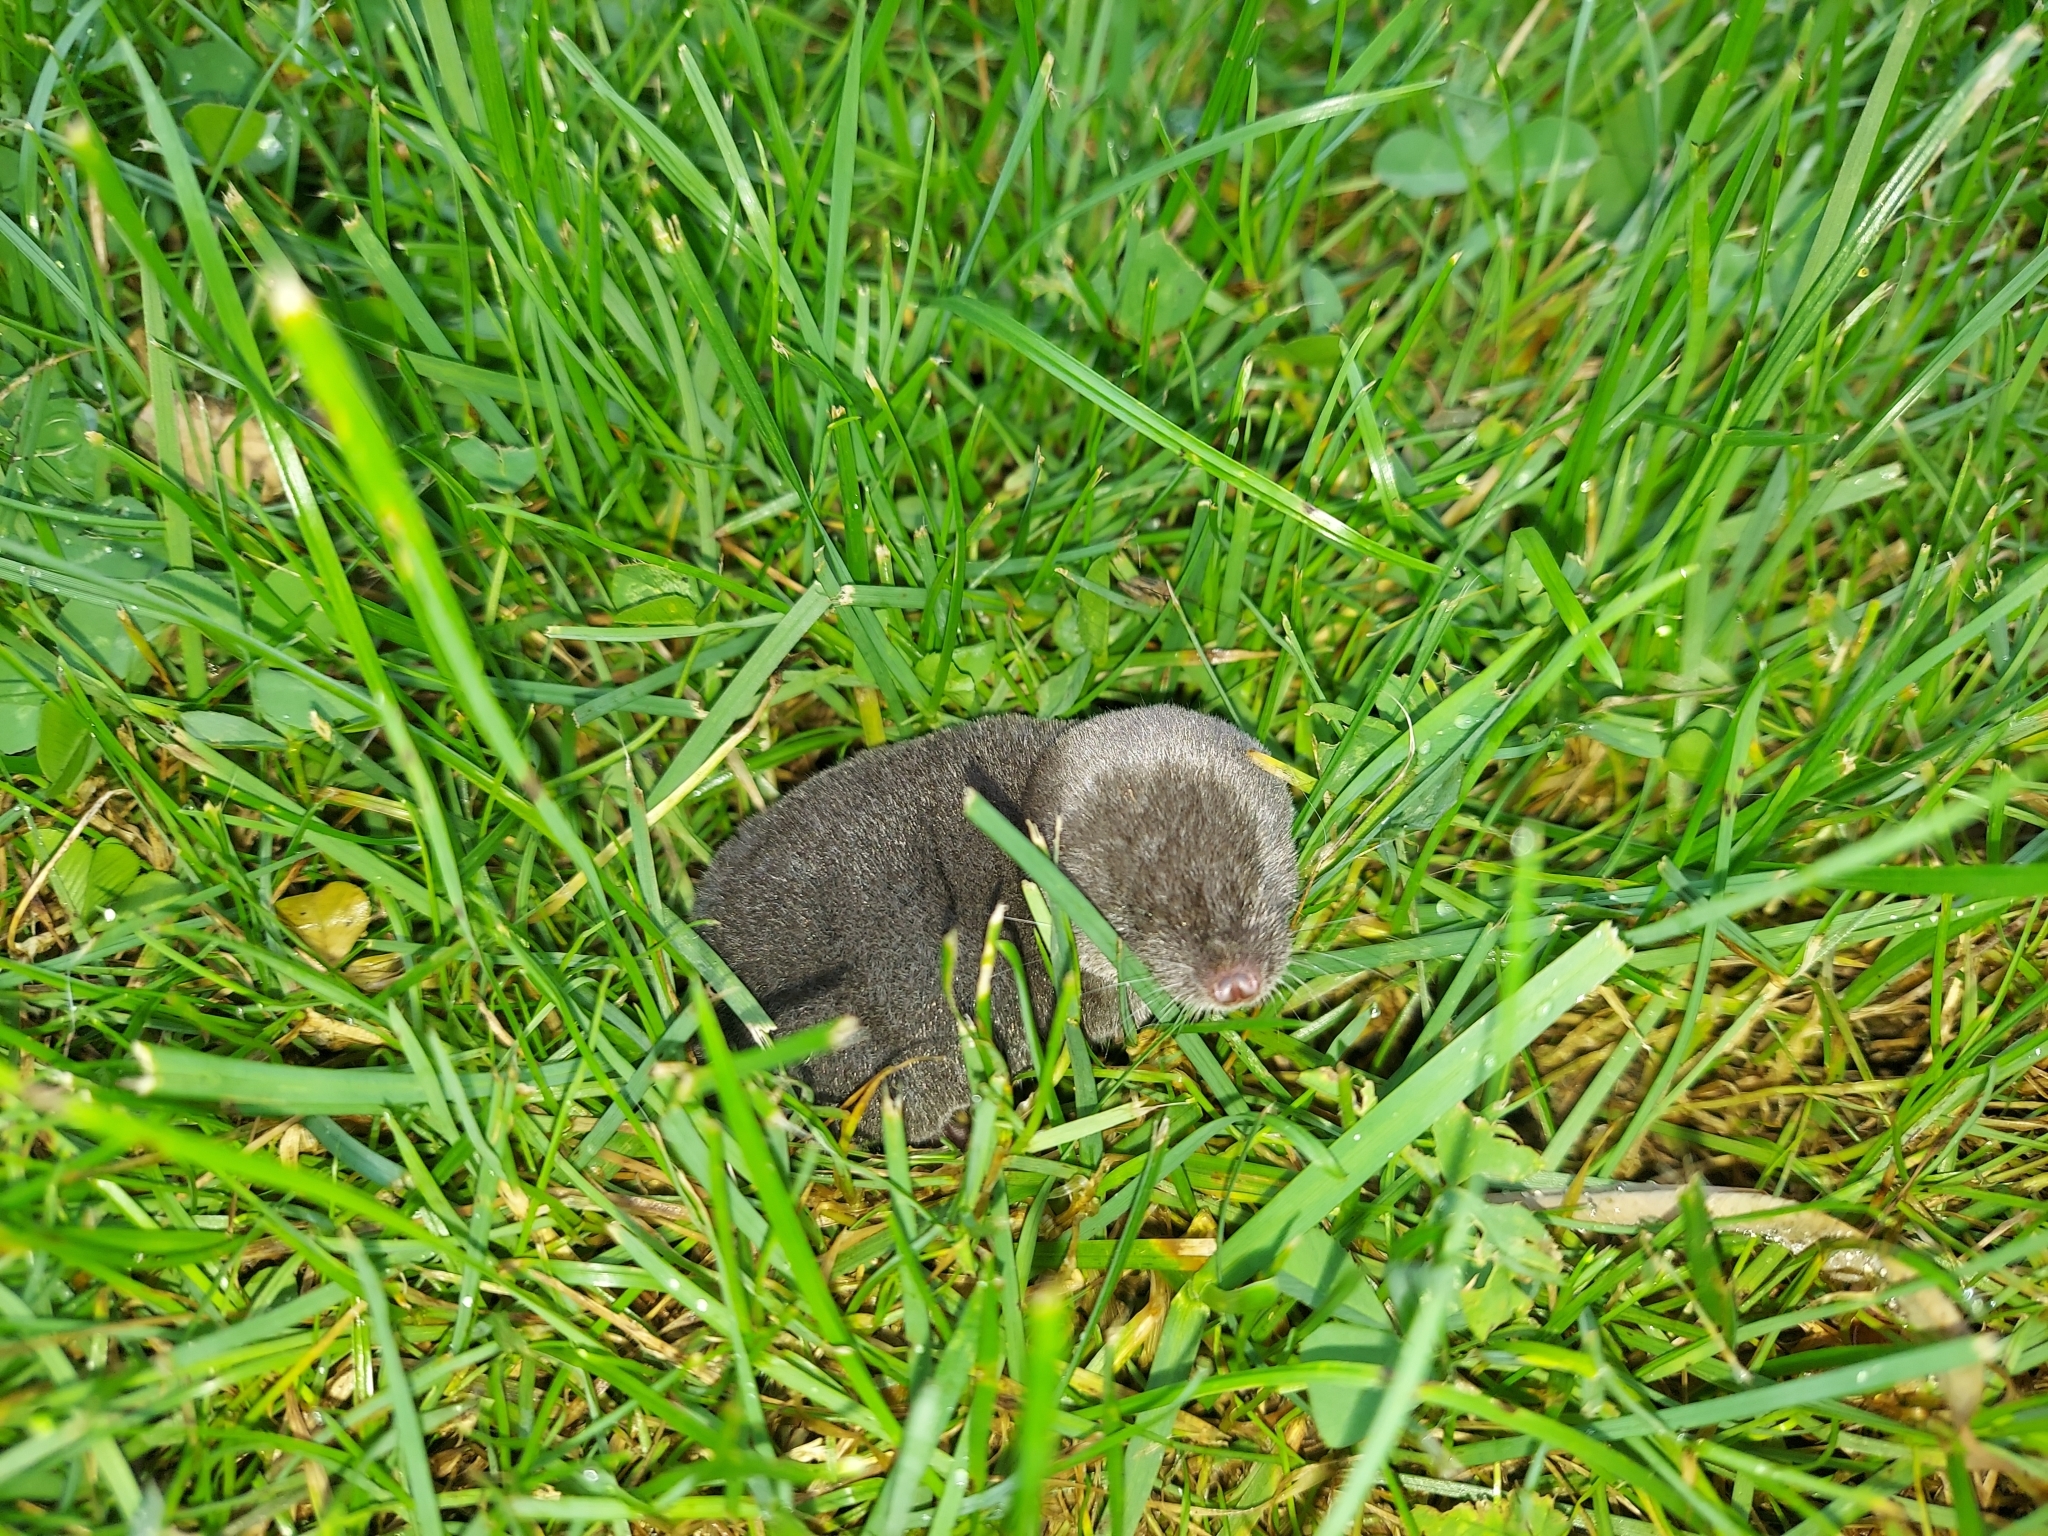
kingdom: Animalia
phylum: Chordata
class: Mammalia
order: Soricomorpha
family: Soricidae
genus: Blarina
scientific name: Blarina brevicauda
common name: Northern short-tailed shrew
